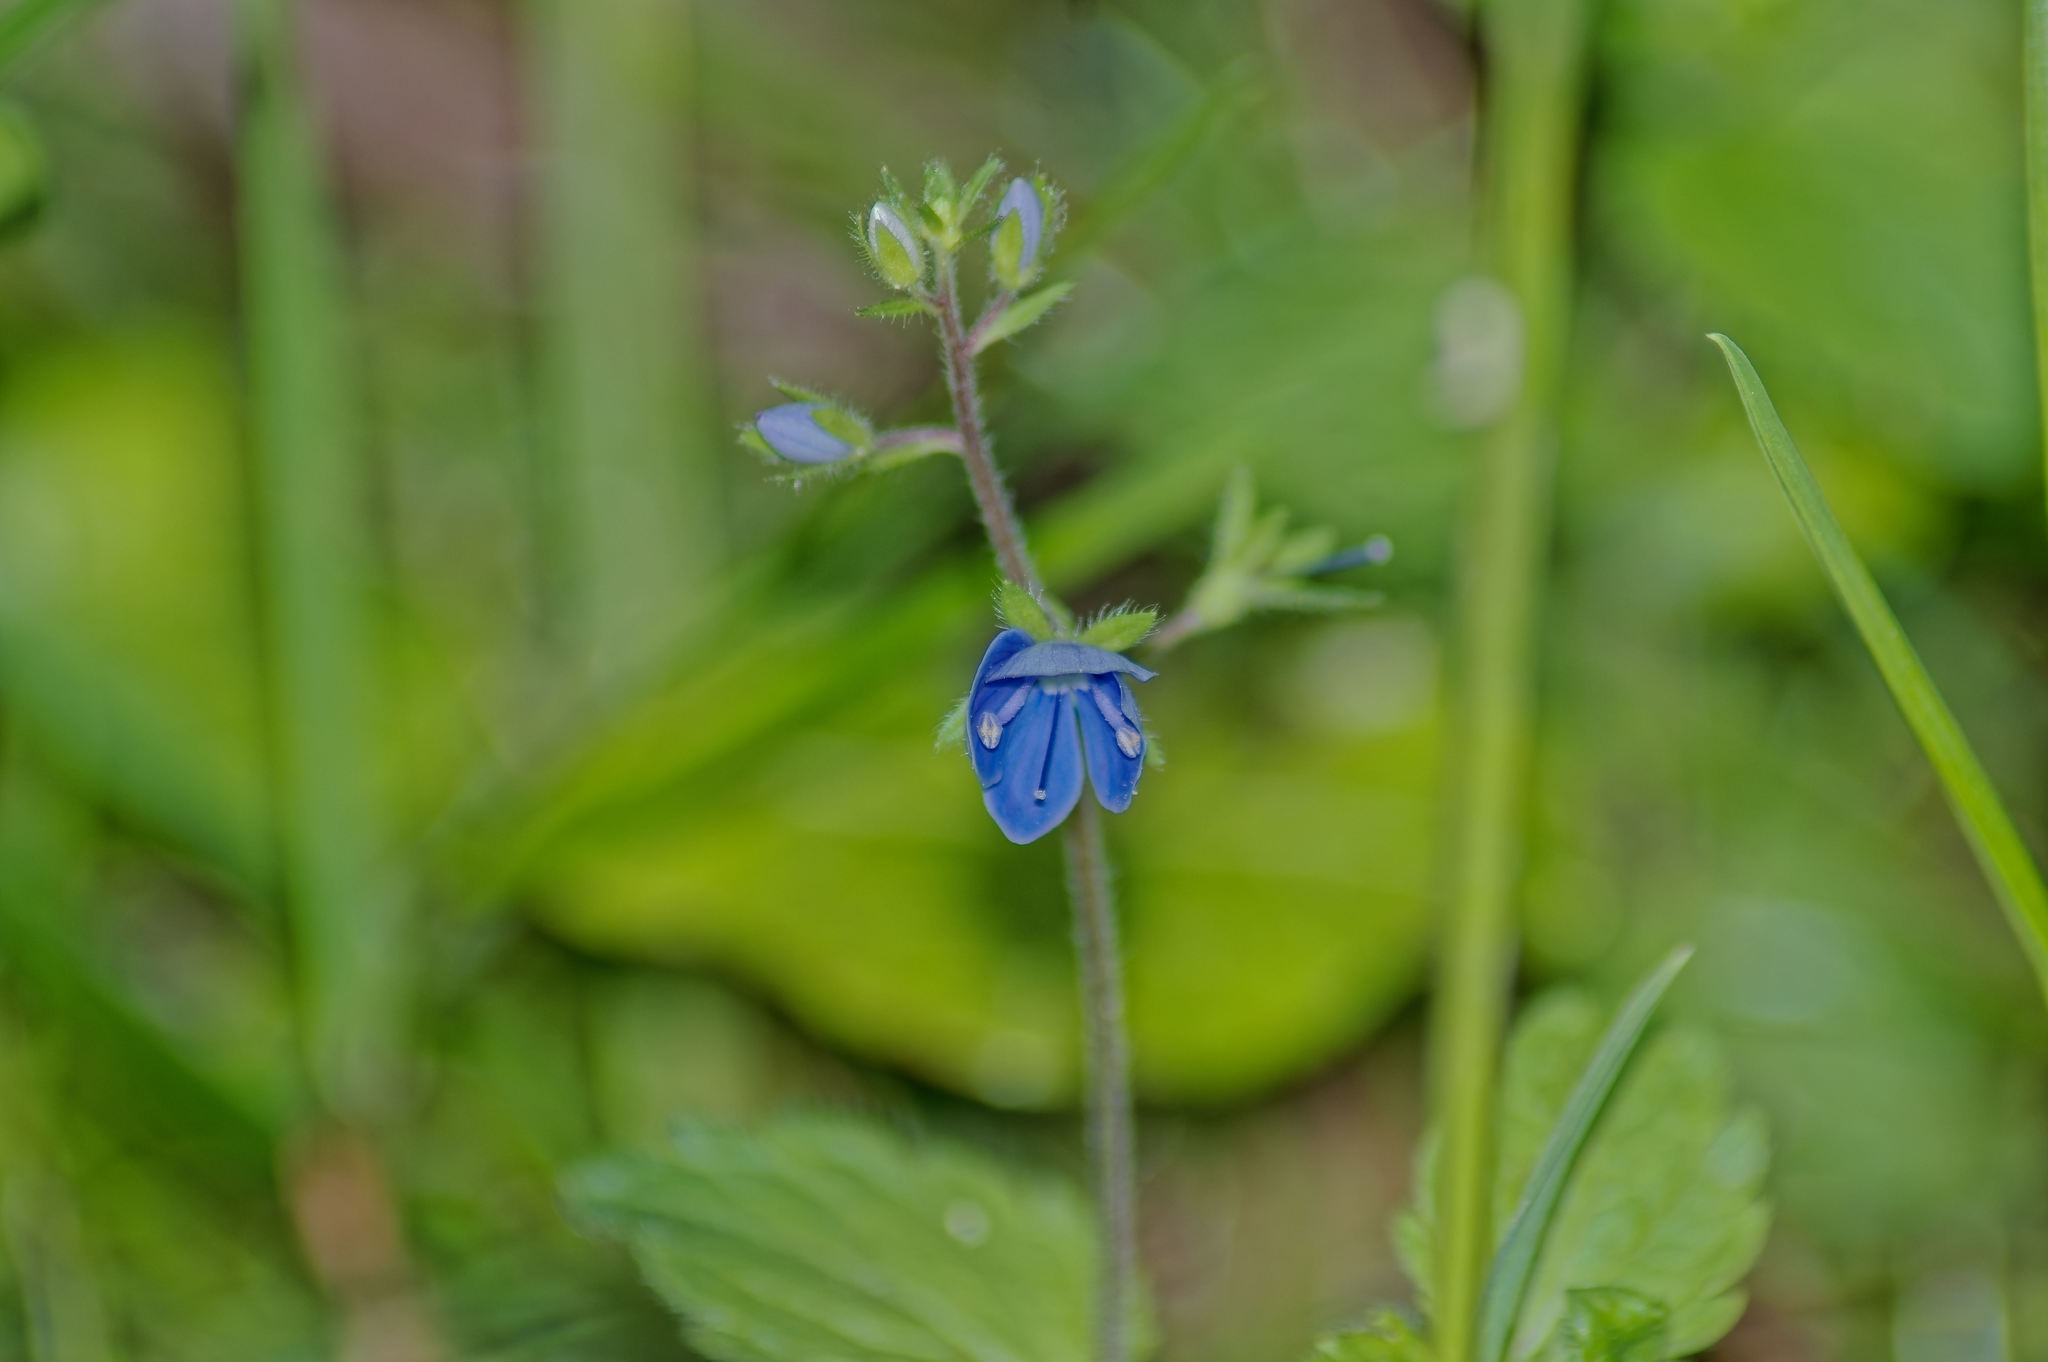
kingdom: Plantae
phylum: Tracheophyta
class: Magnoliopsida
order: Lamiales
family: Plantaginaceae
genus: Veronica
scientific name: Veronica chamaedrys
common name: Germander speedwell
